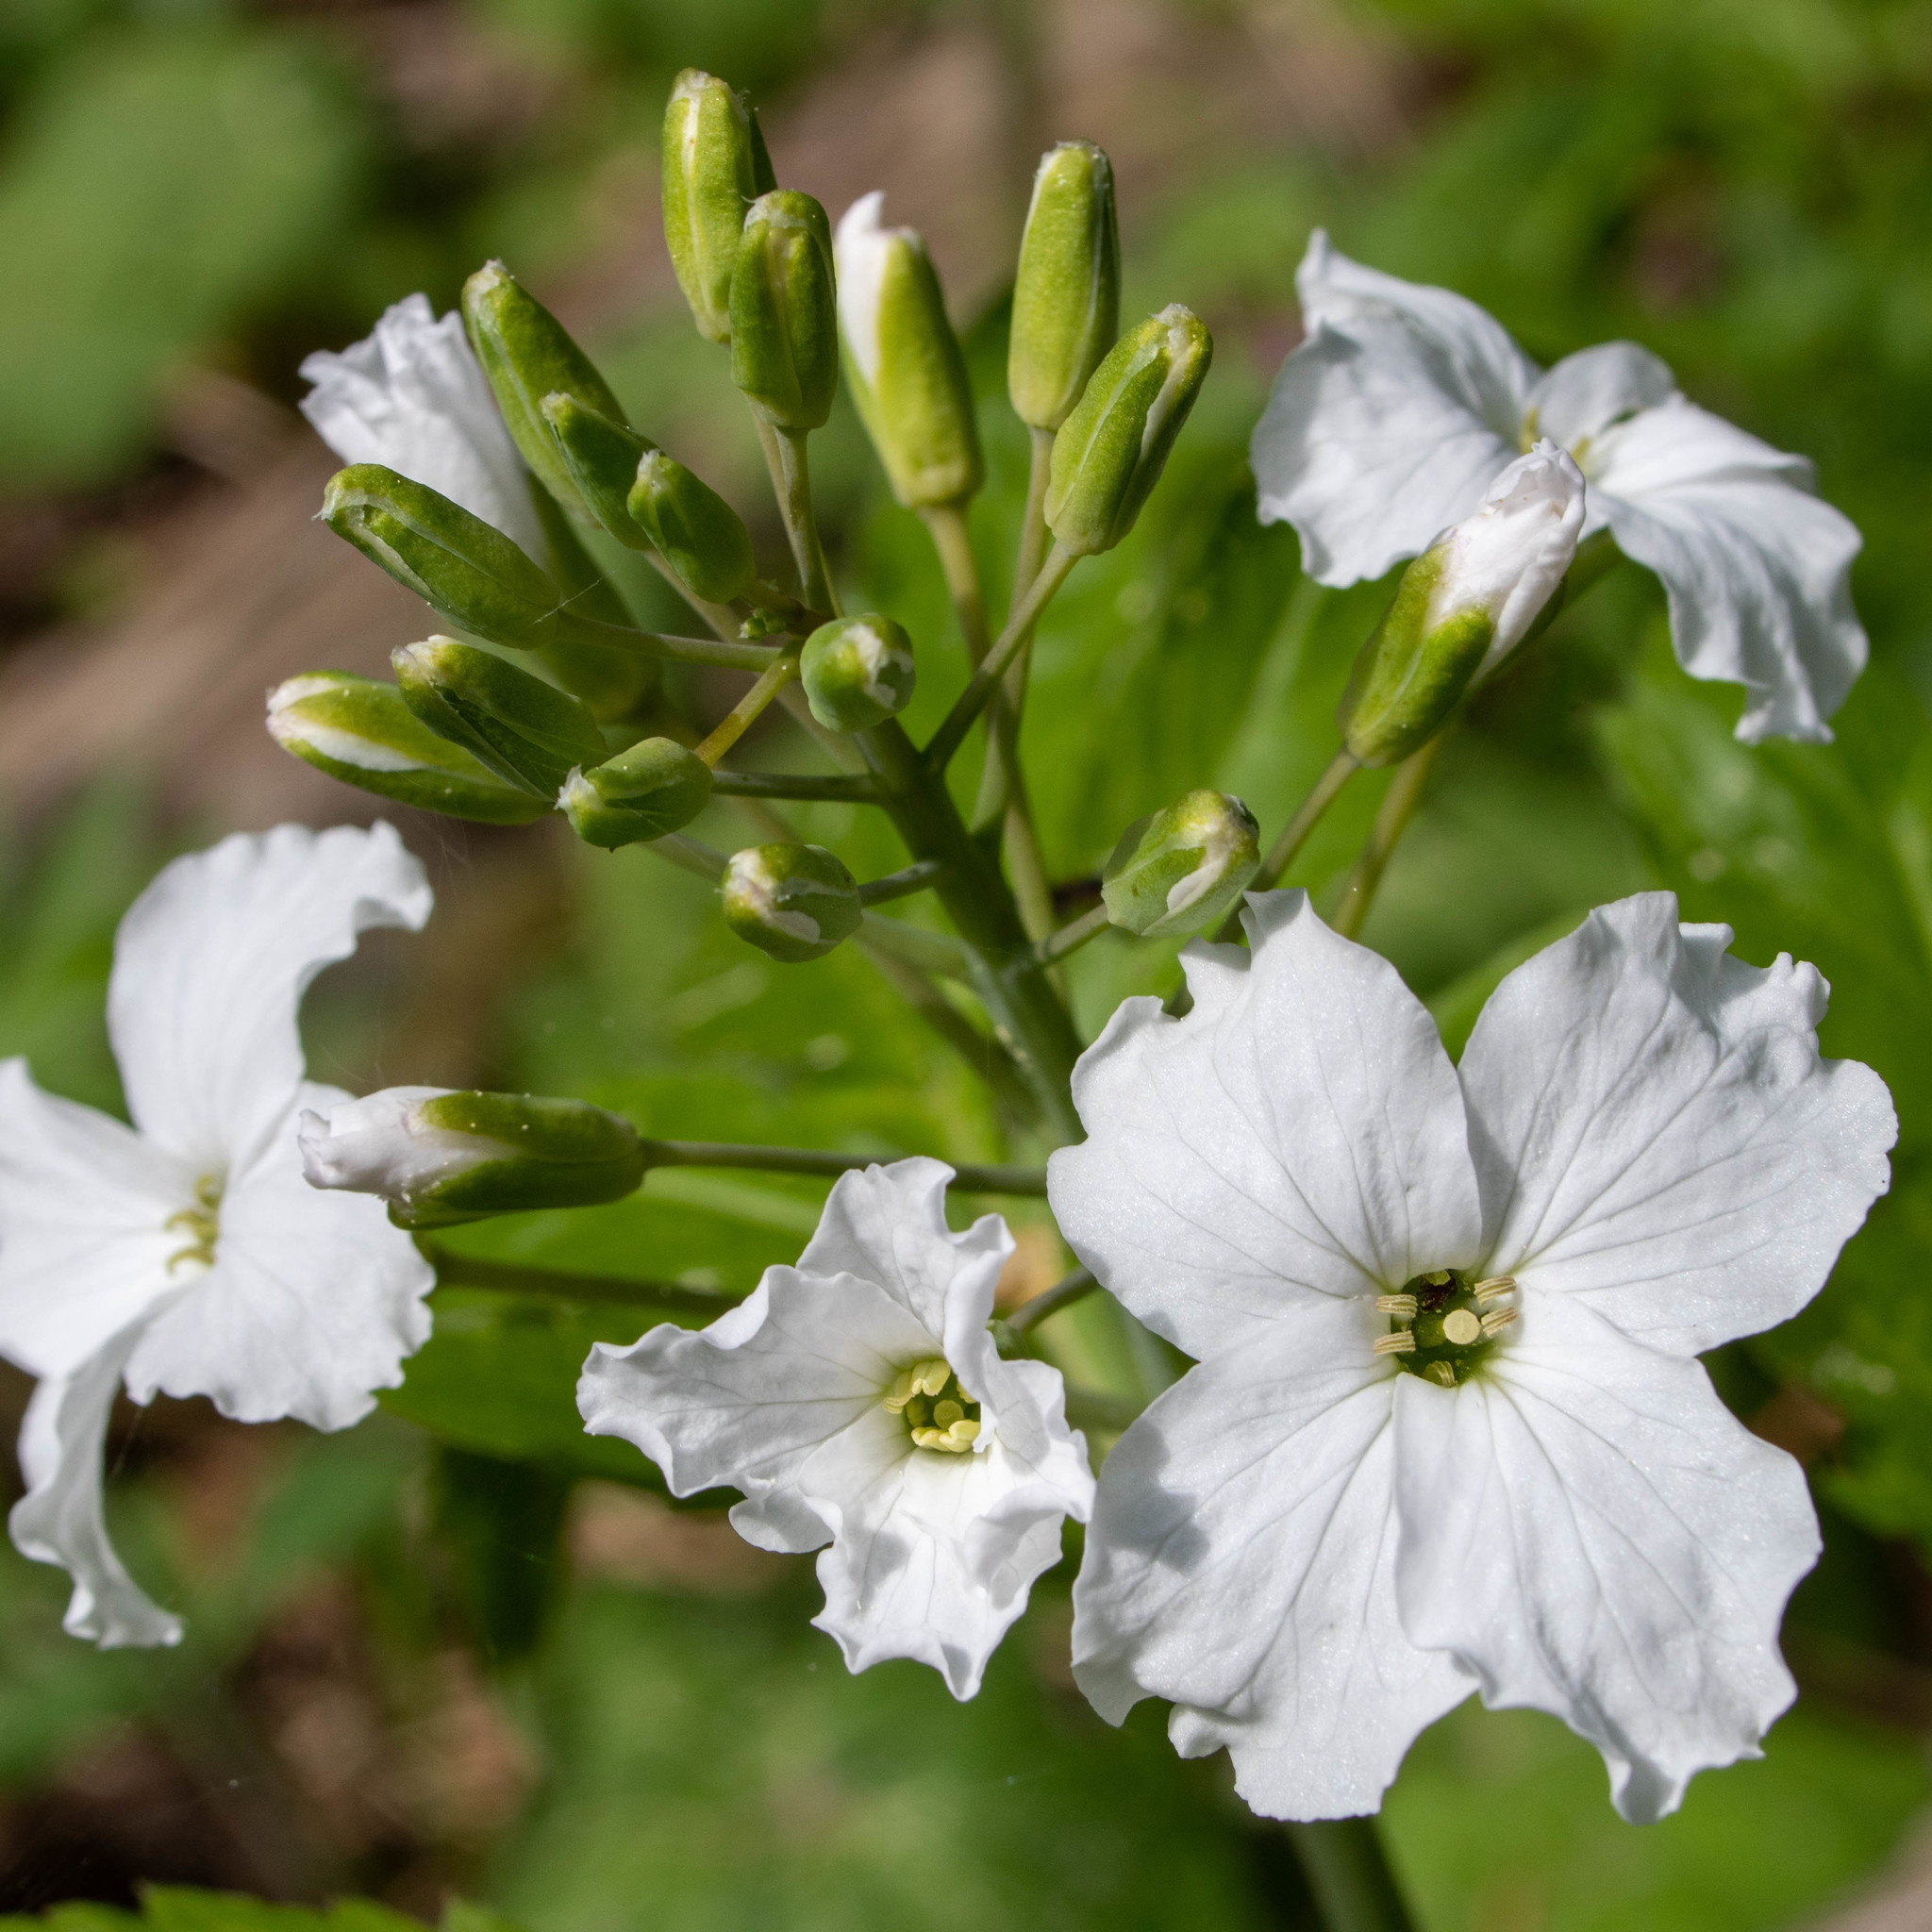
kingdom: Plantae
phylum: Tracheophyta
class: Magnoliopsida
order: Brassicales
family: Brassicaceae
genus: Cardamine
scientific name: Cardamine heptaphylla
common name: Pinnate coralroot
